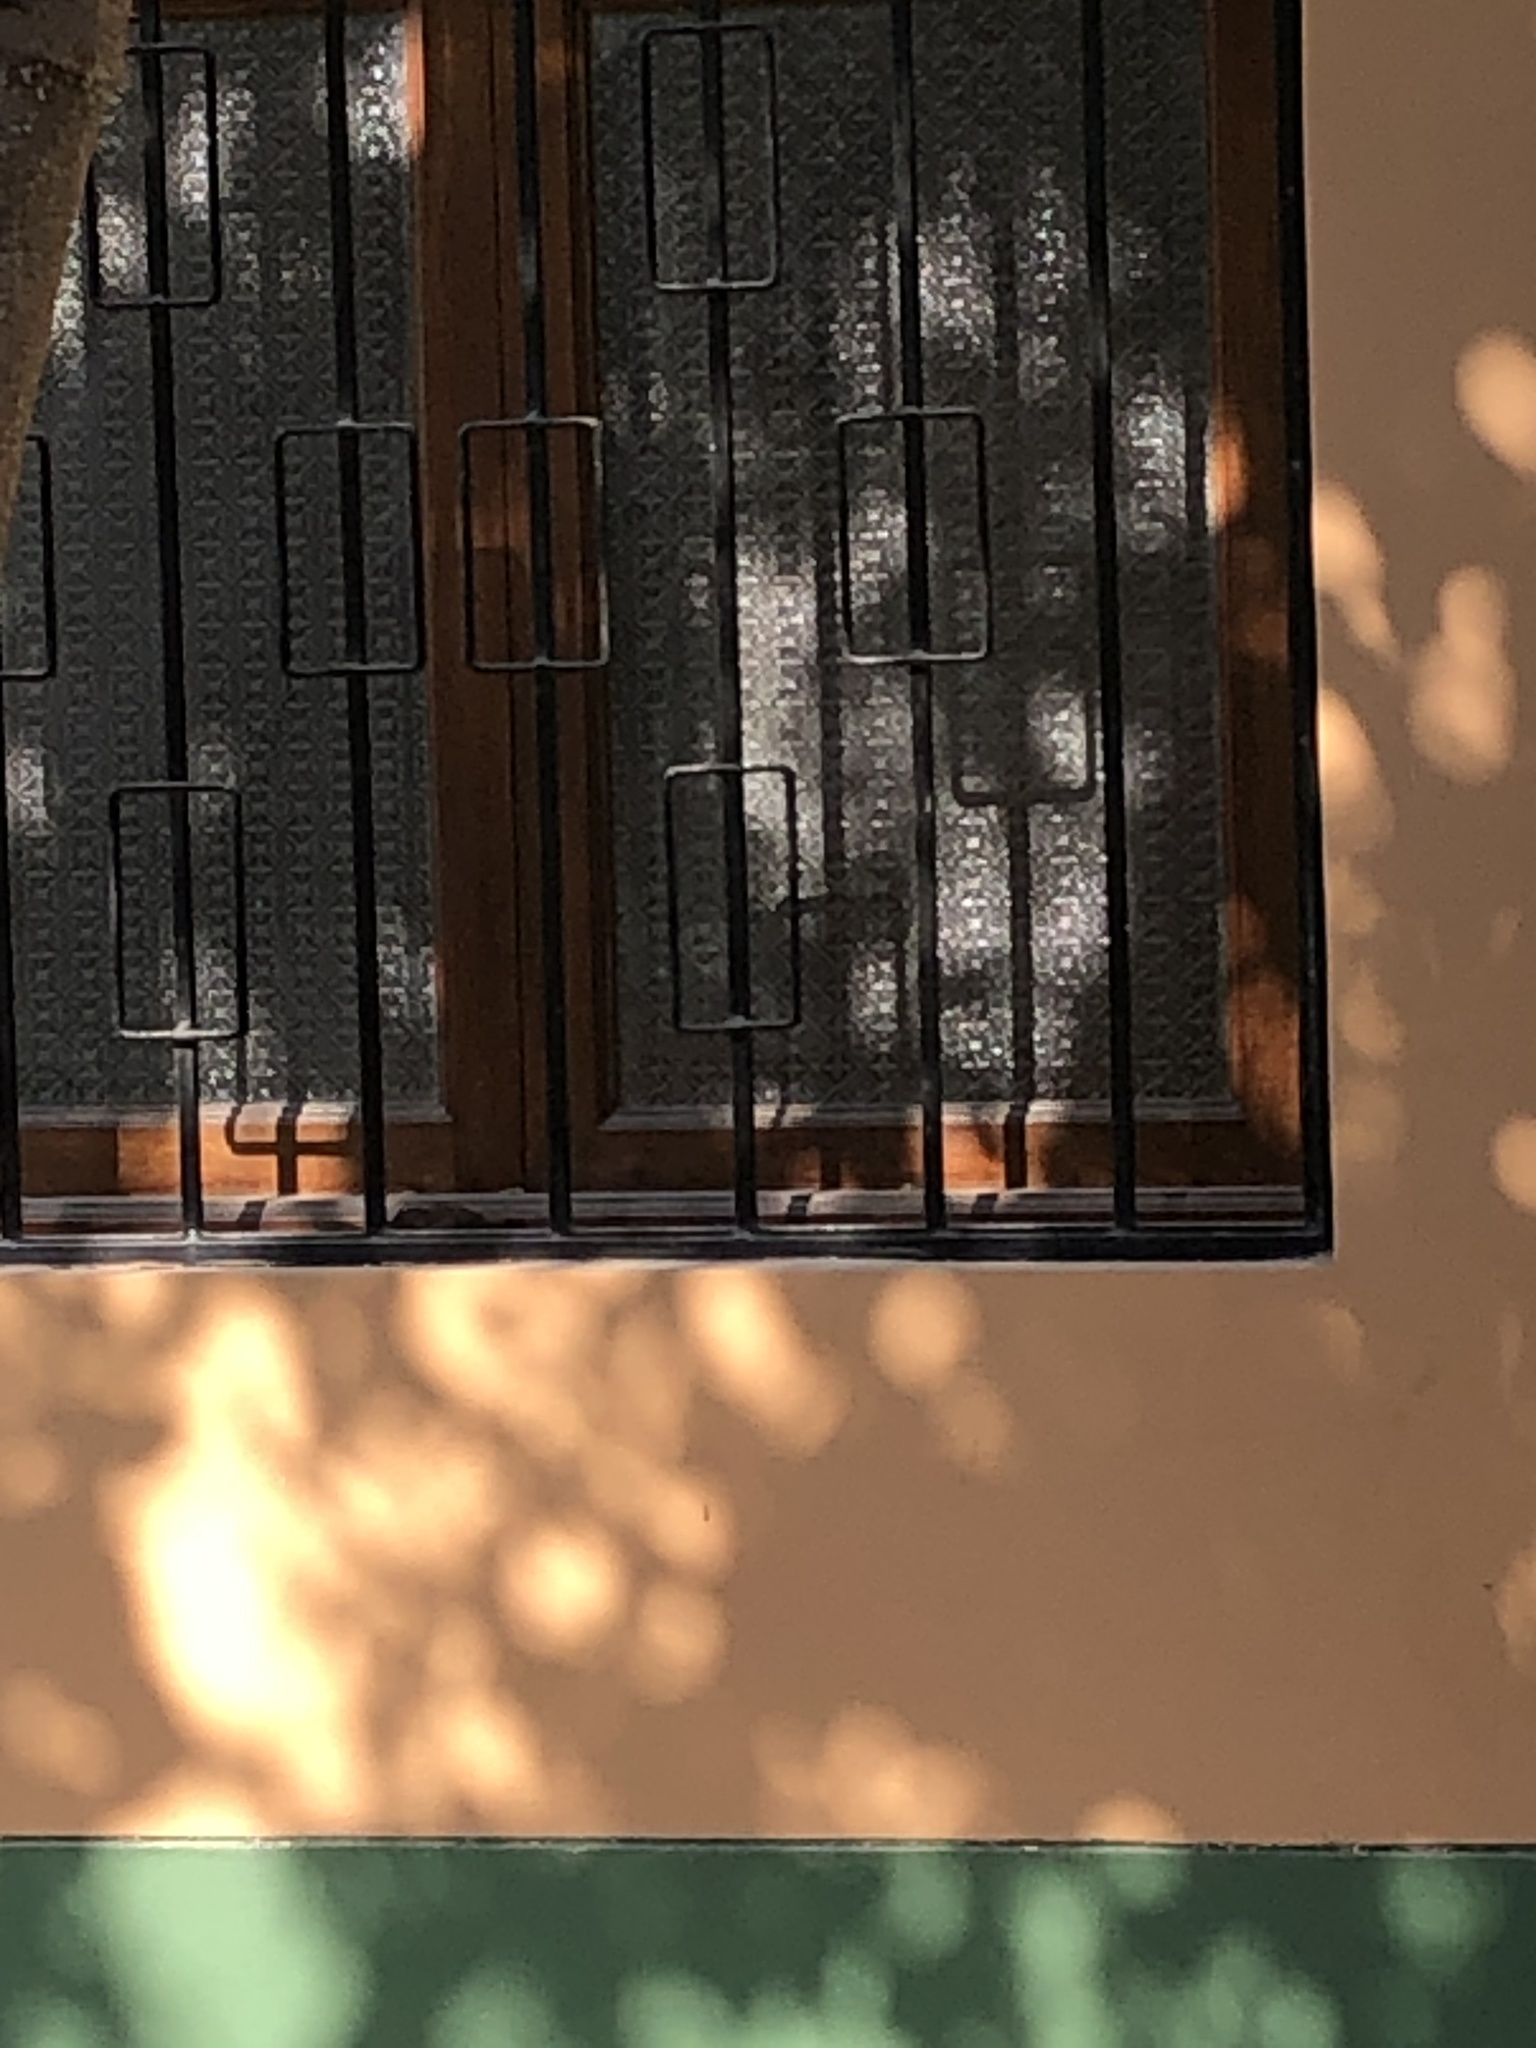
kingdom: Animalia
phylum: Chordata
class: Aves
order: Passeriformes
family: Troglodytidae
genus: Troglodytes
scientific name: Troglodytes aedon
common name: House wren
